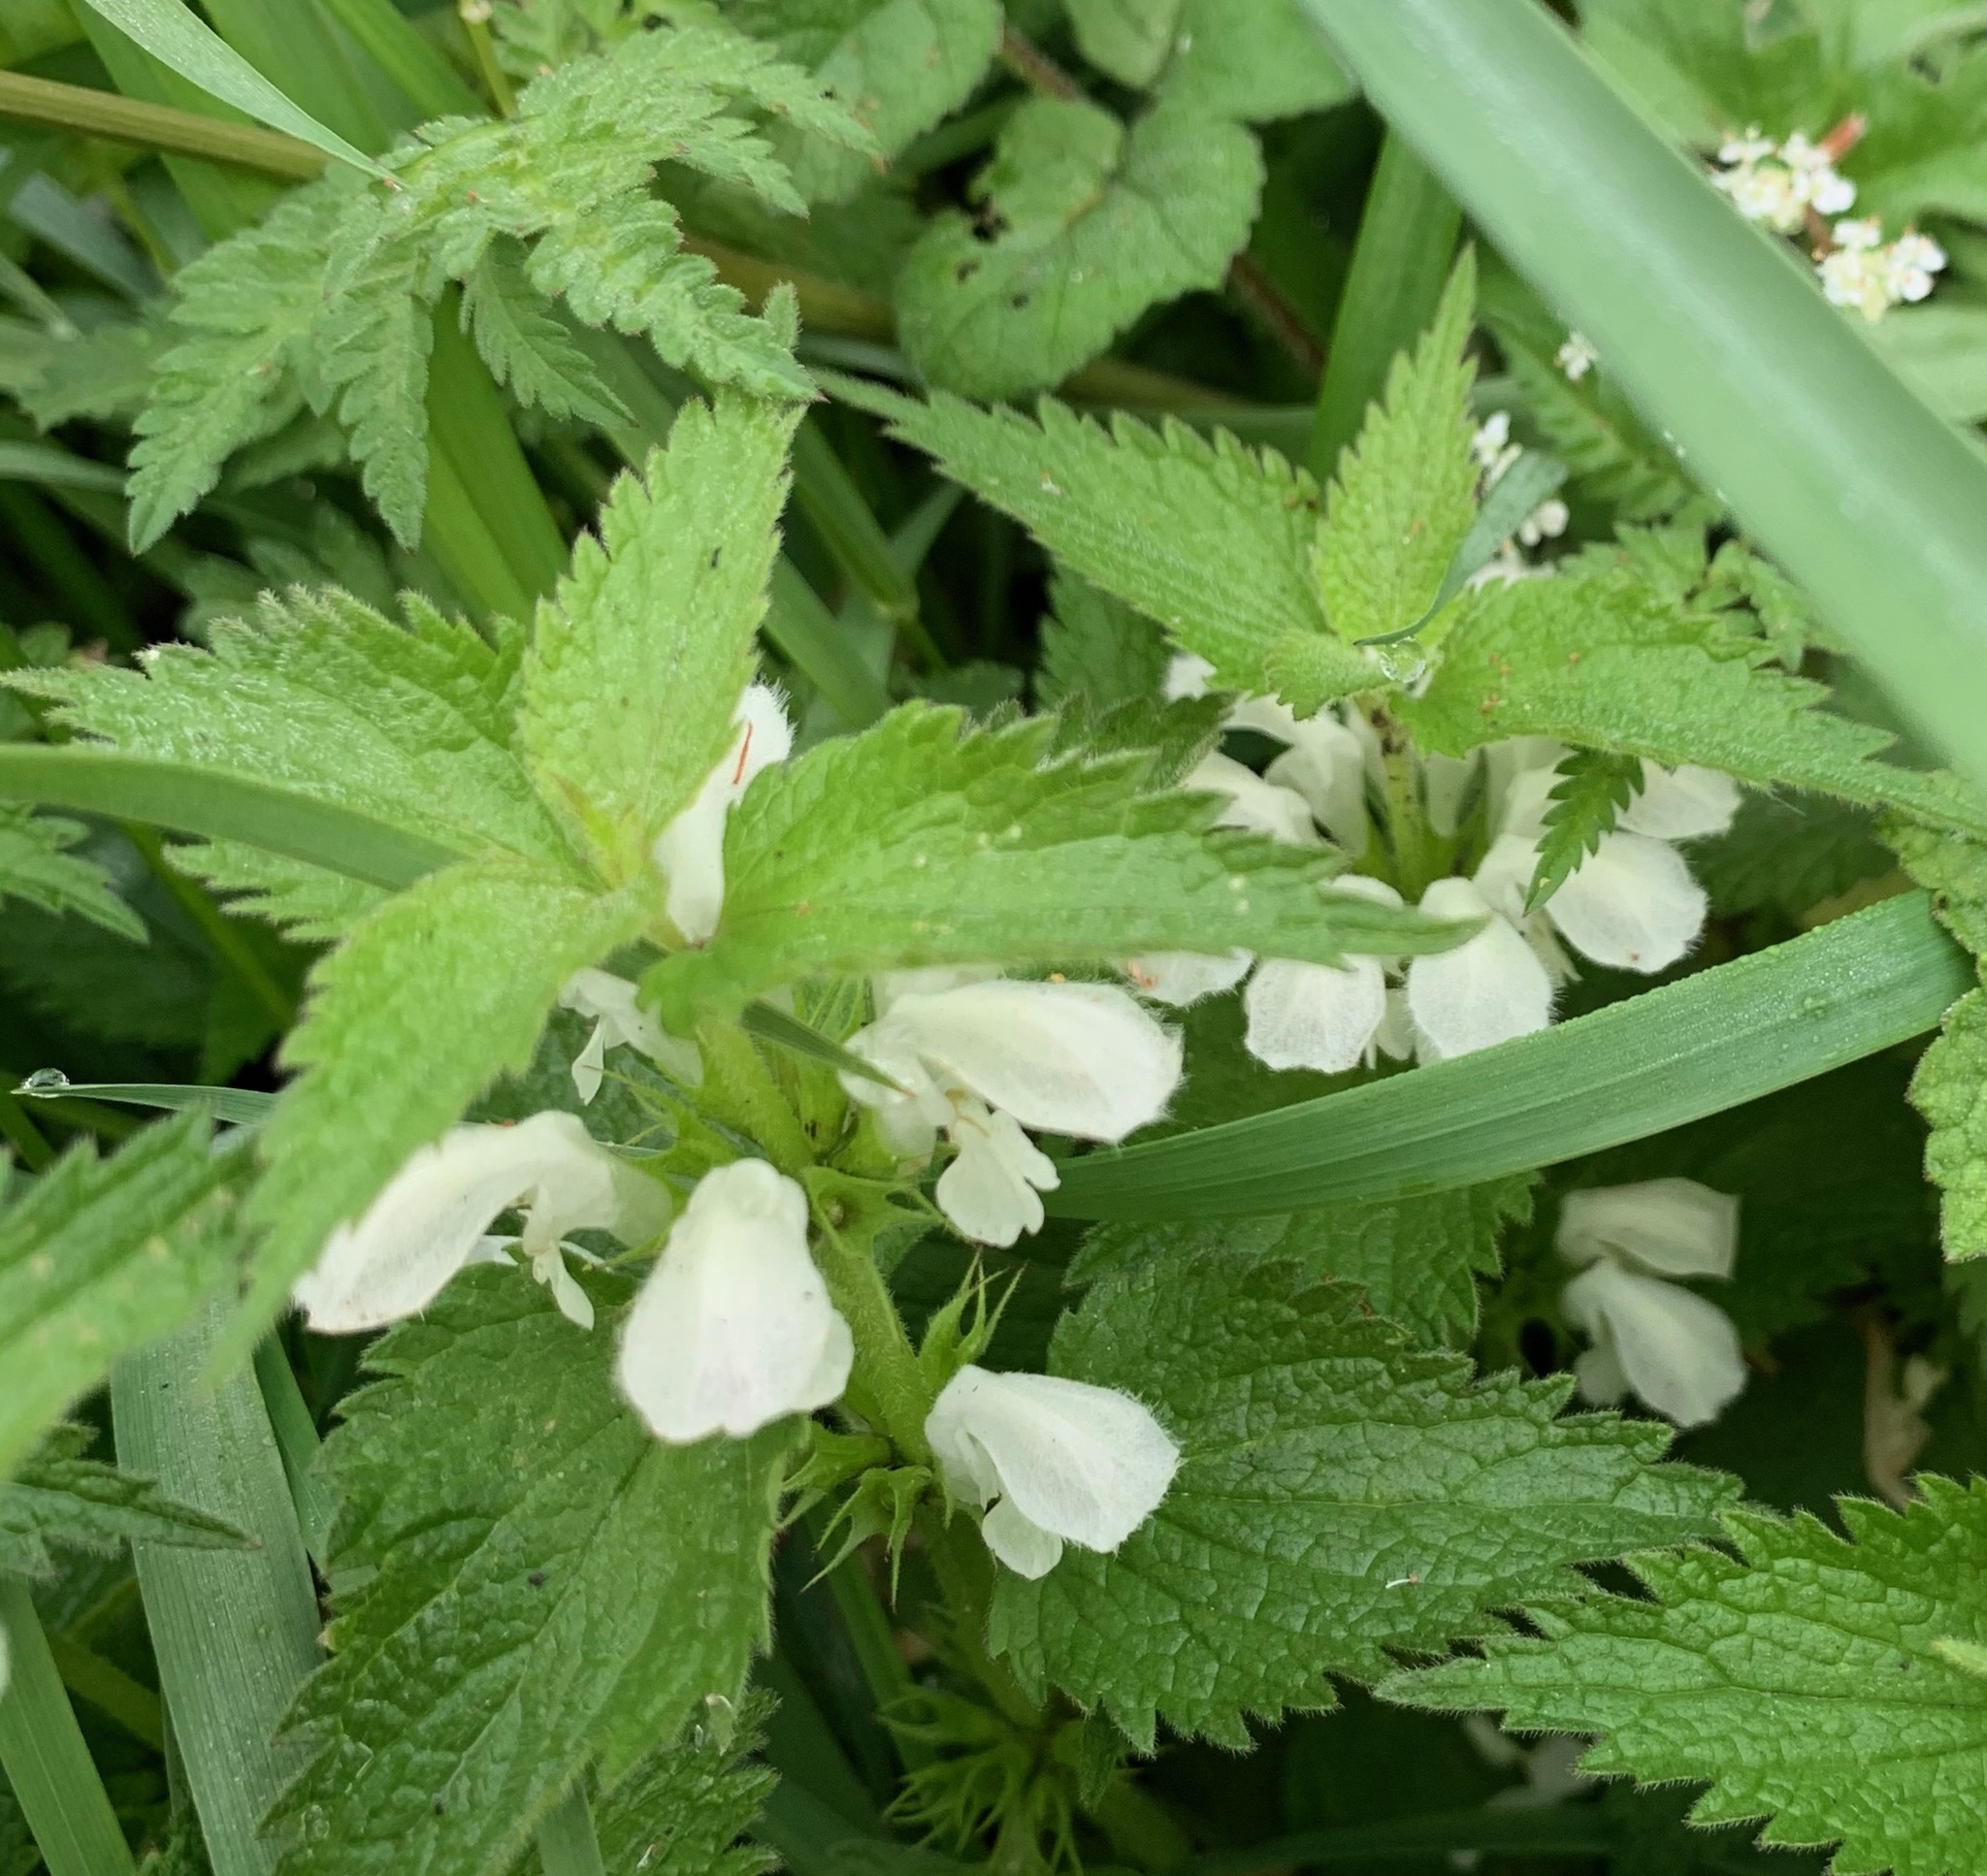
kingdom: Plantae
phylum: Tracheophyta
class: Magnoliopsida
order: Lamiales
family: Lamiaceae
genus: Lamium
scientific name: Lamium album
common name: White dead-nettle
